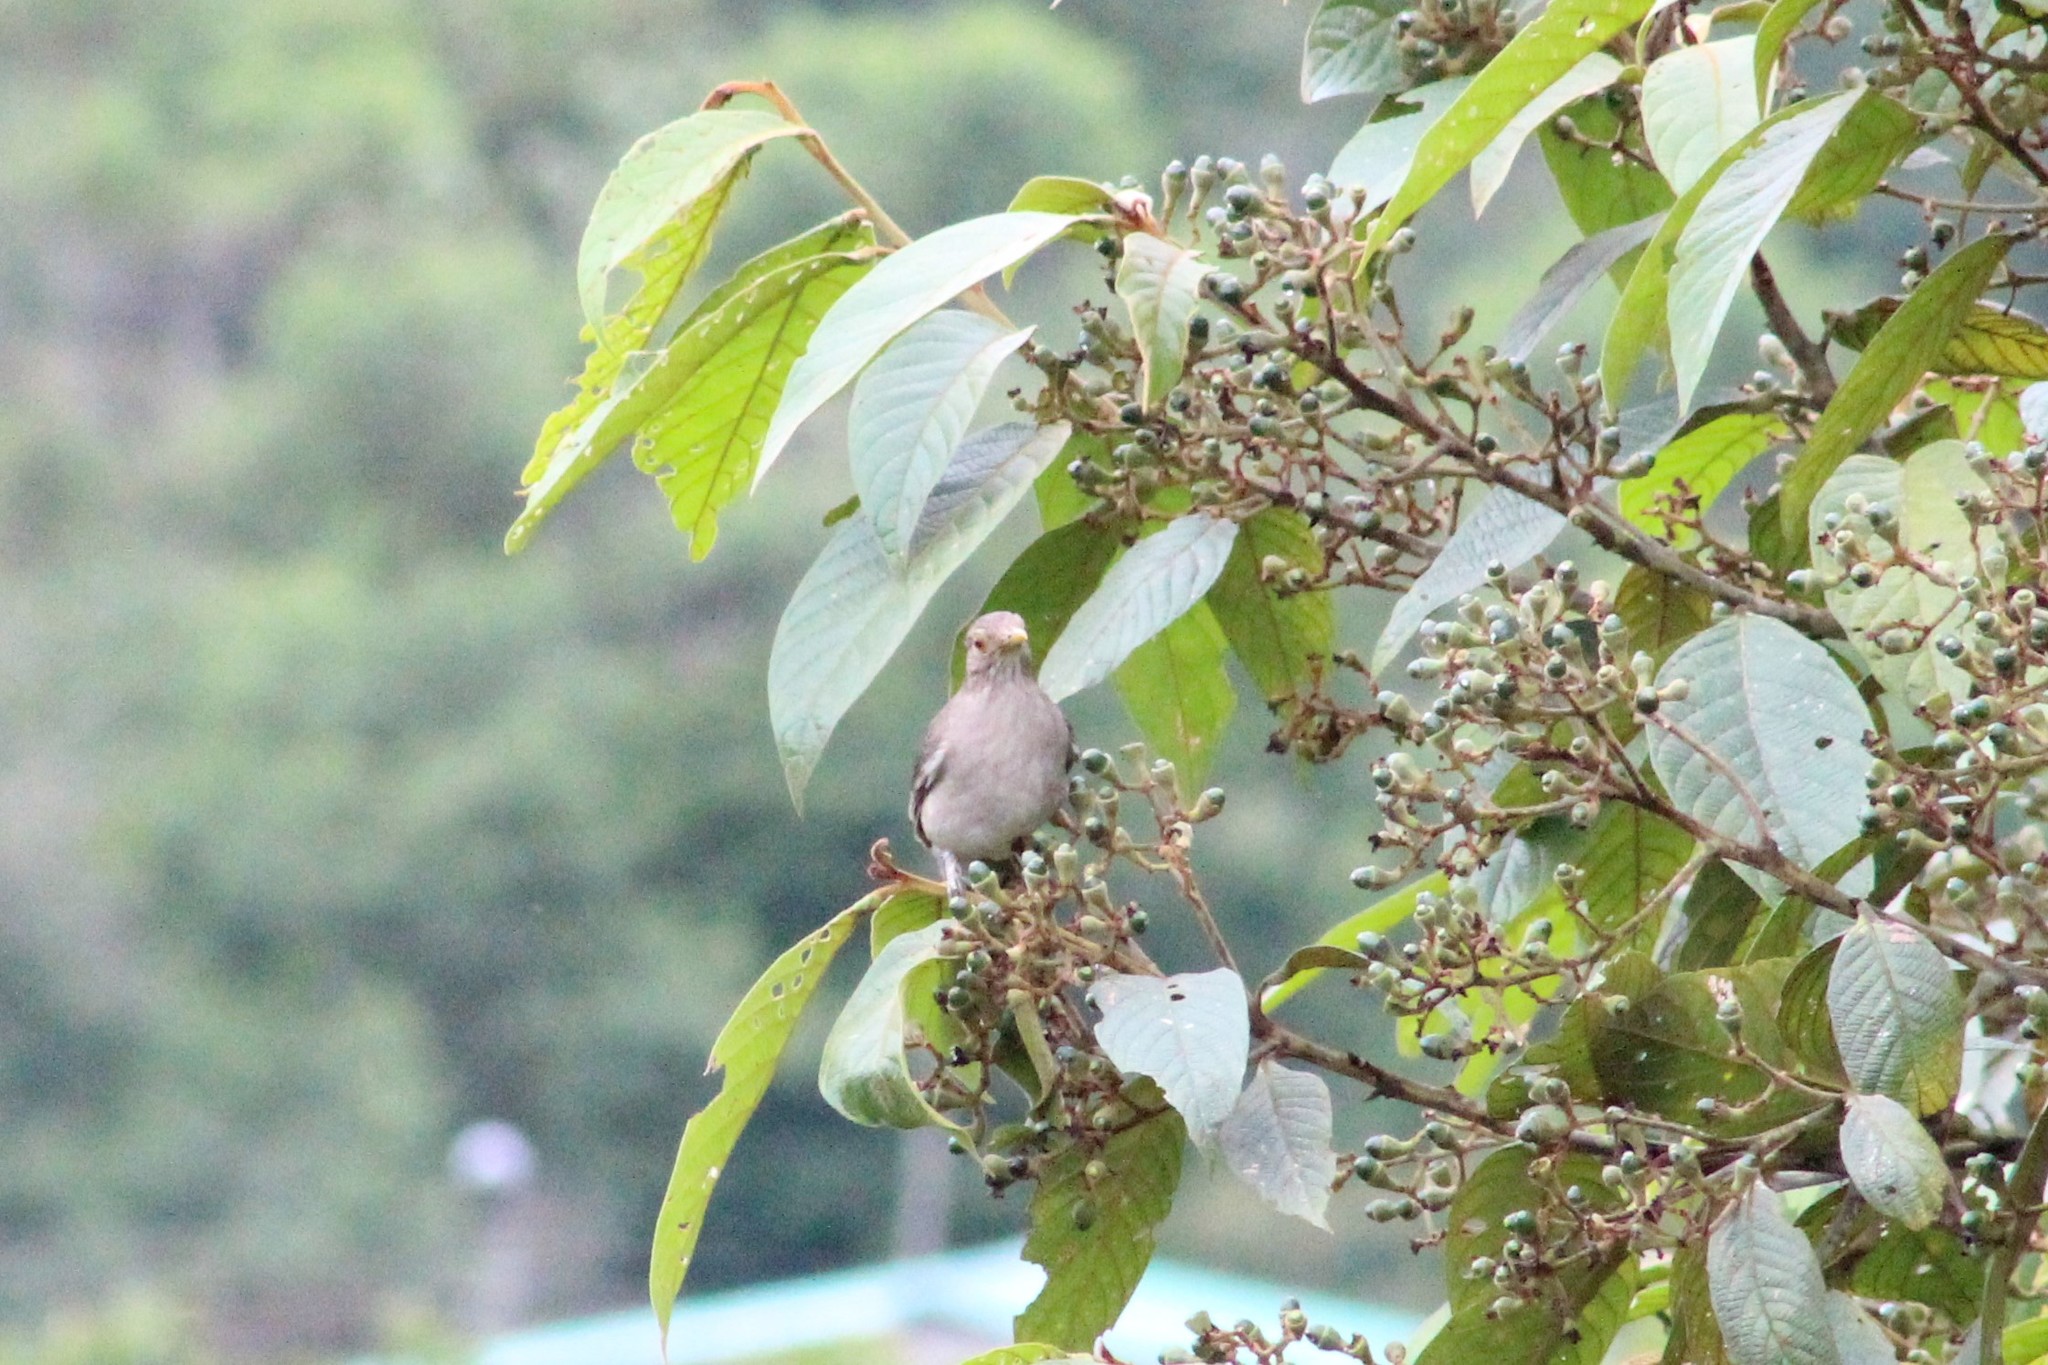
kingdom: Animalia
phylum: Chordata
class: Aves
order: Passeriformes
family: Turdidae
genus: Turdus
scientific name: Turdus maculirostris
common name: Ecuadorian thrush
